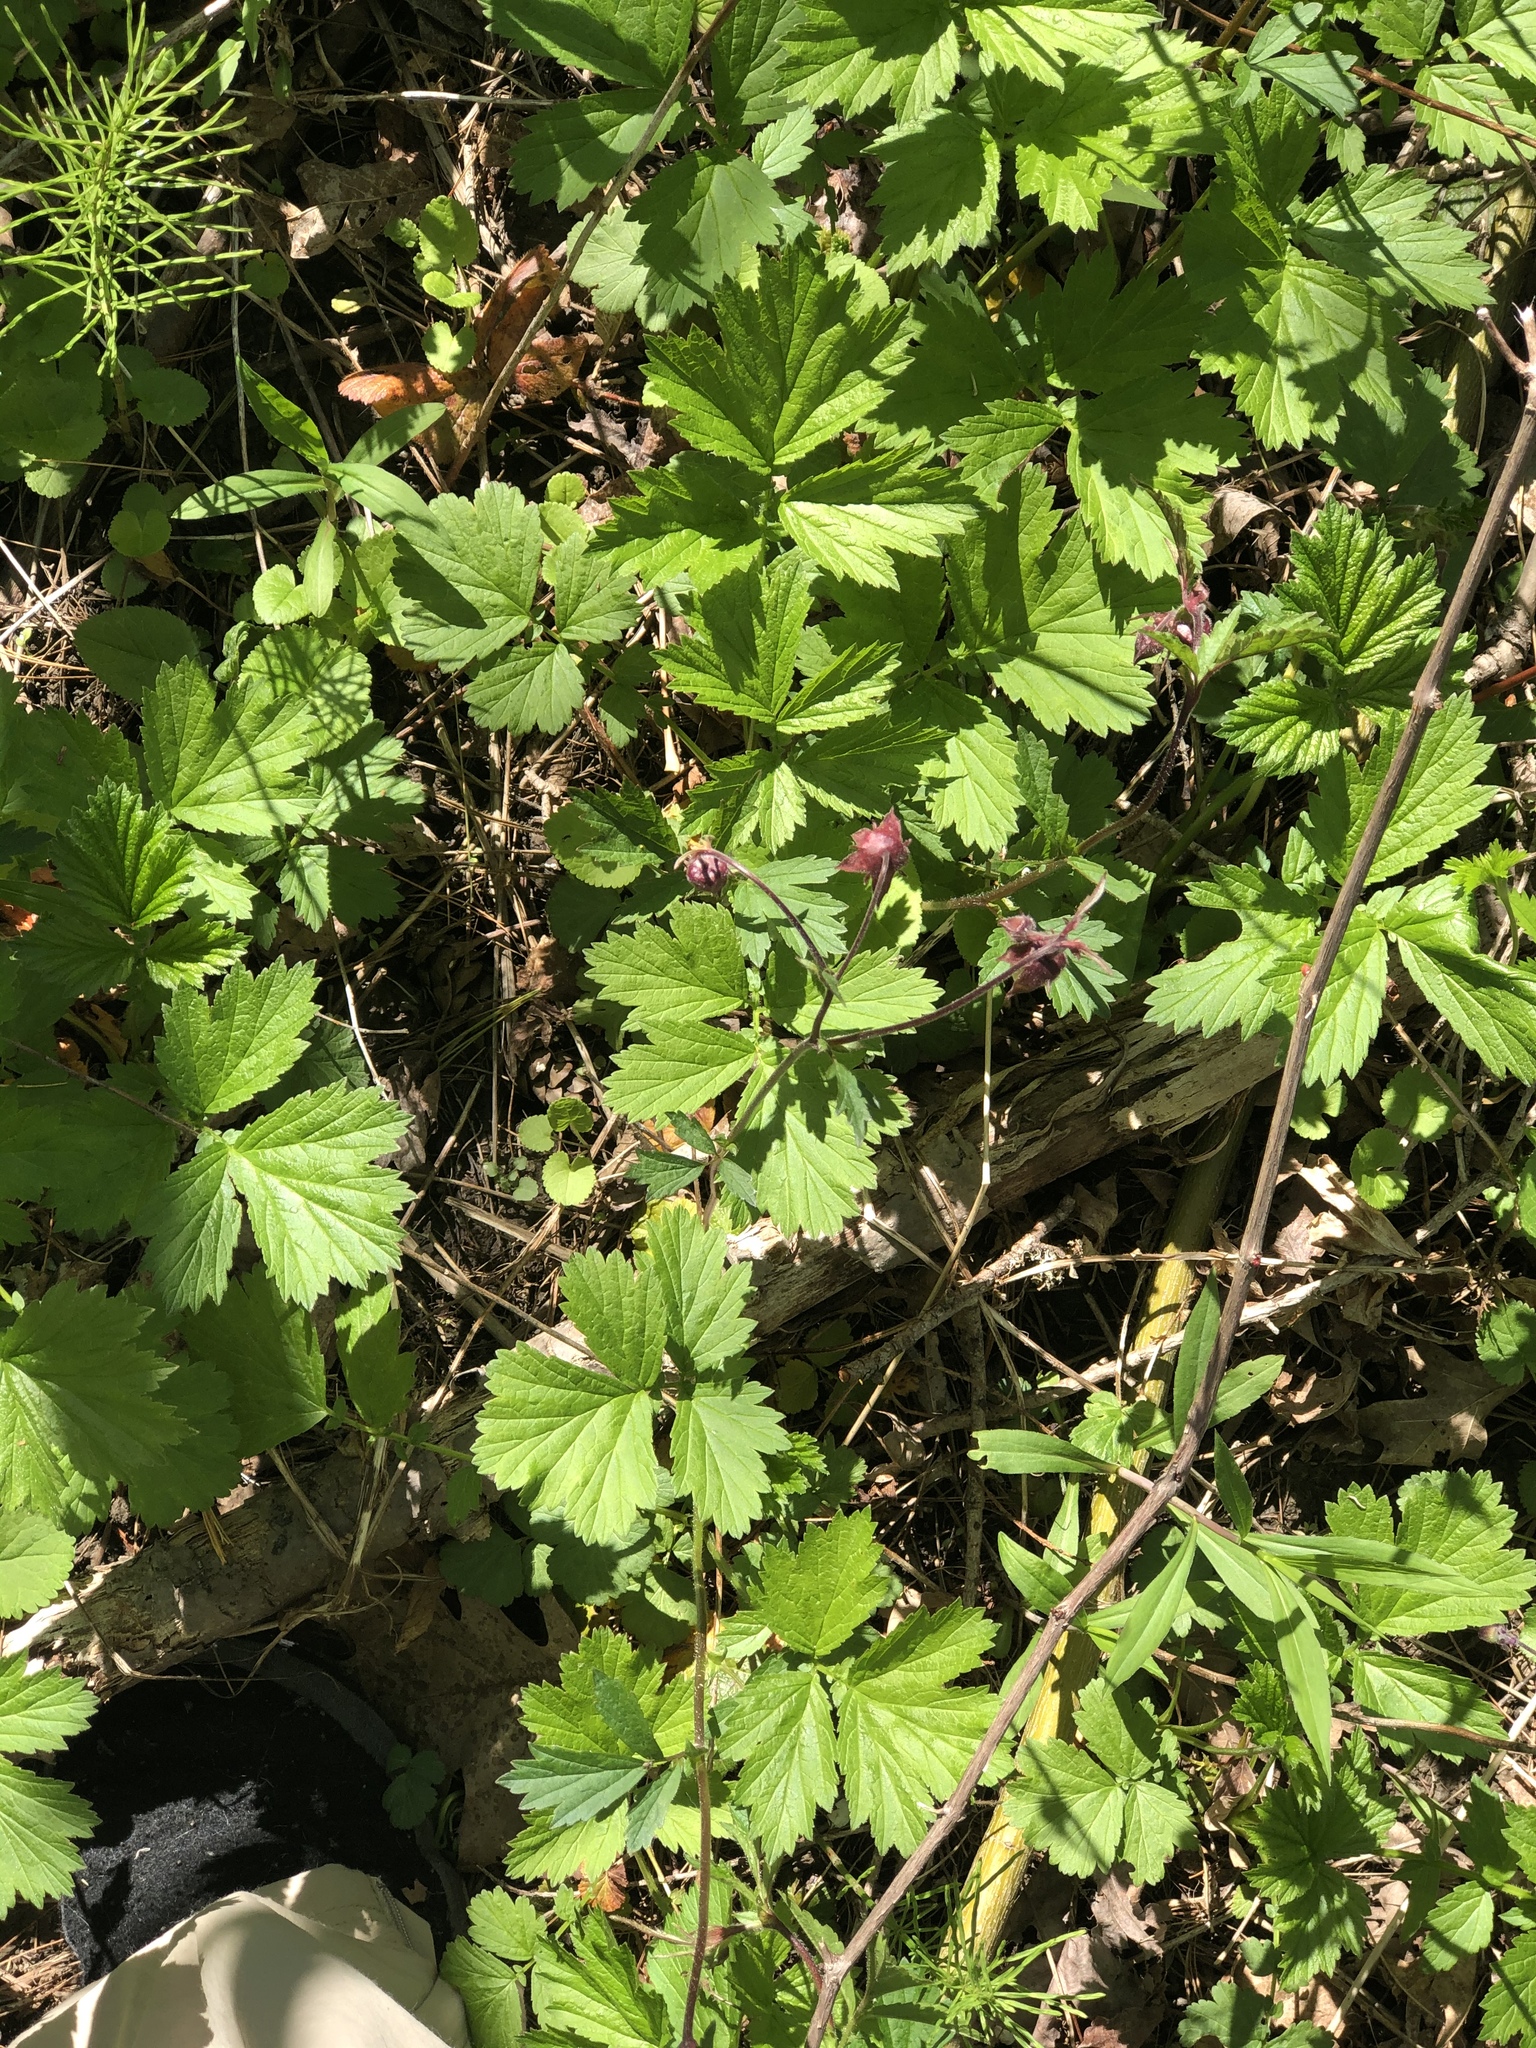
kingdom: Plantae
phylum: Tracheophyta
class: Magnoliopsida
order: Rosales
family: Rosaceae
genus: Geum
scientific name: Geum rivale
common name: Water avens
